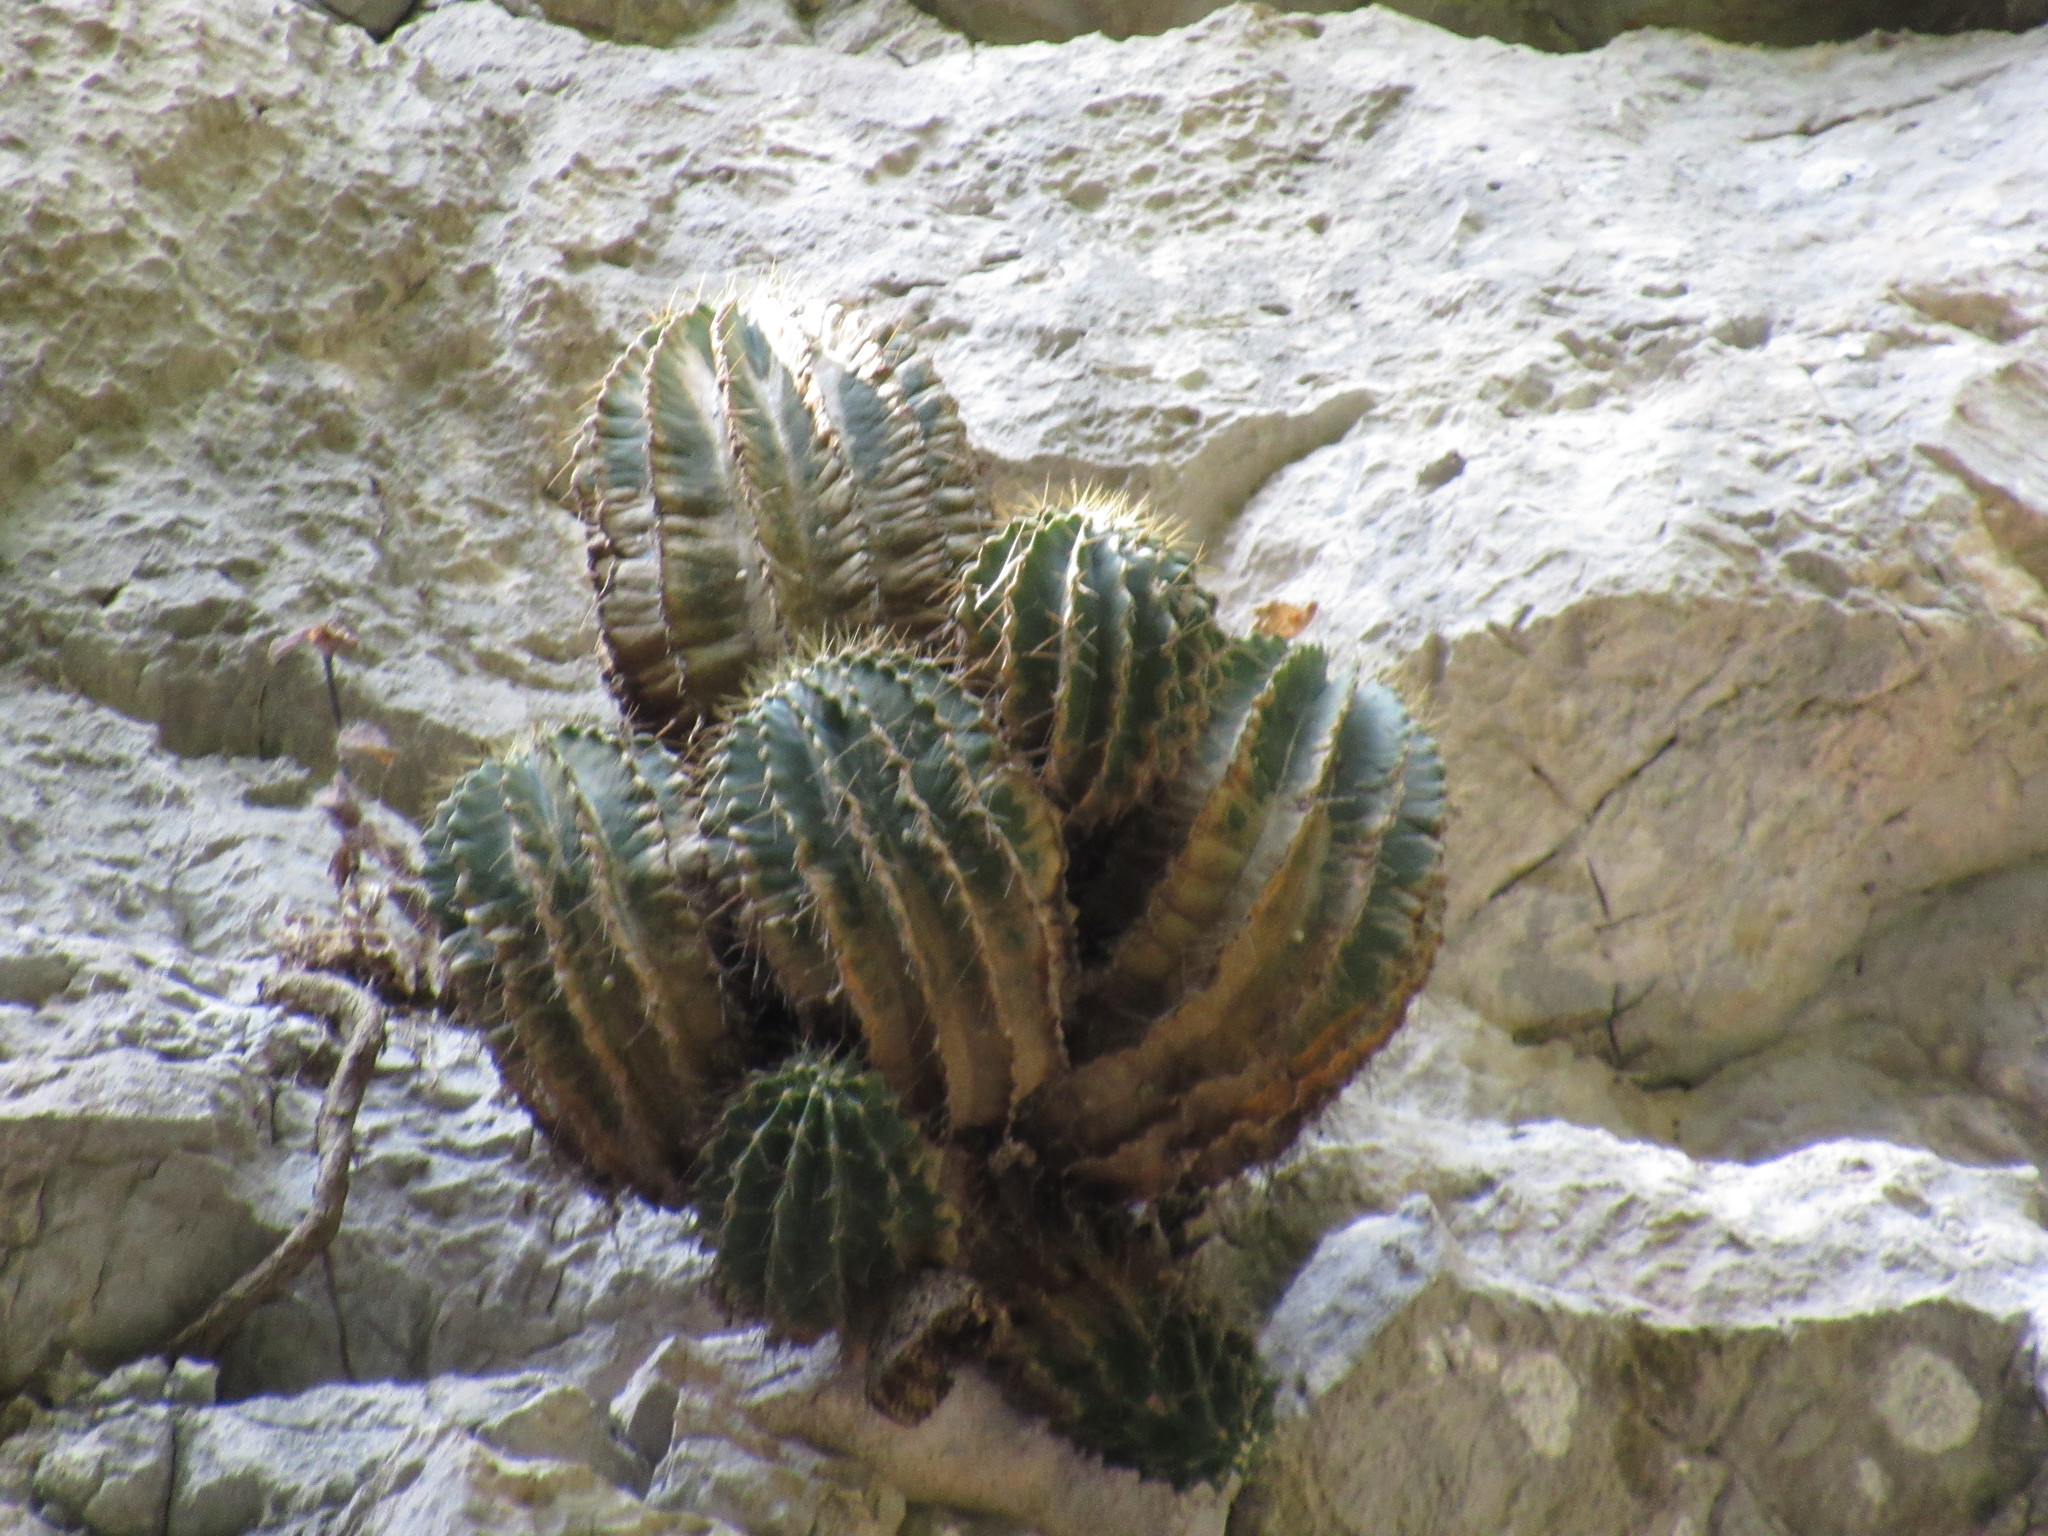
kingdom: Plantae
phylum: Tracheophyta
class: Magnoliopsida
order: Caryophyllales
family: Cactaceae
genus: Parrycactus
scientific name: Parrycactus echidne
